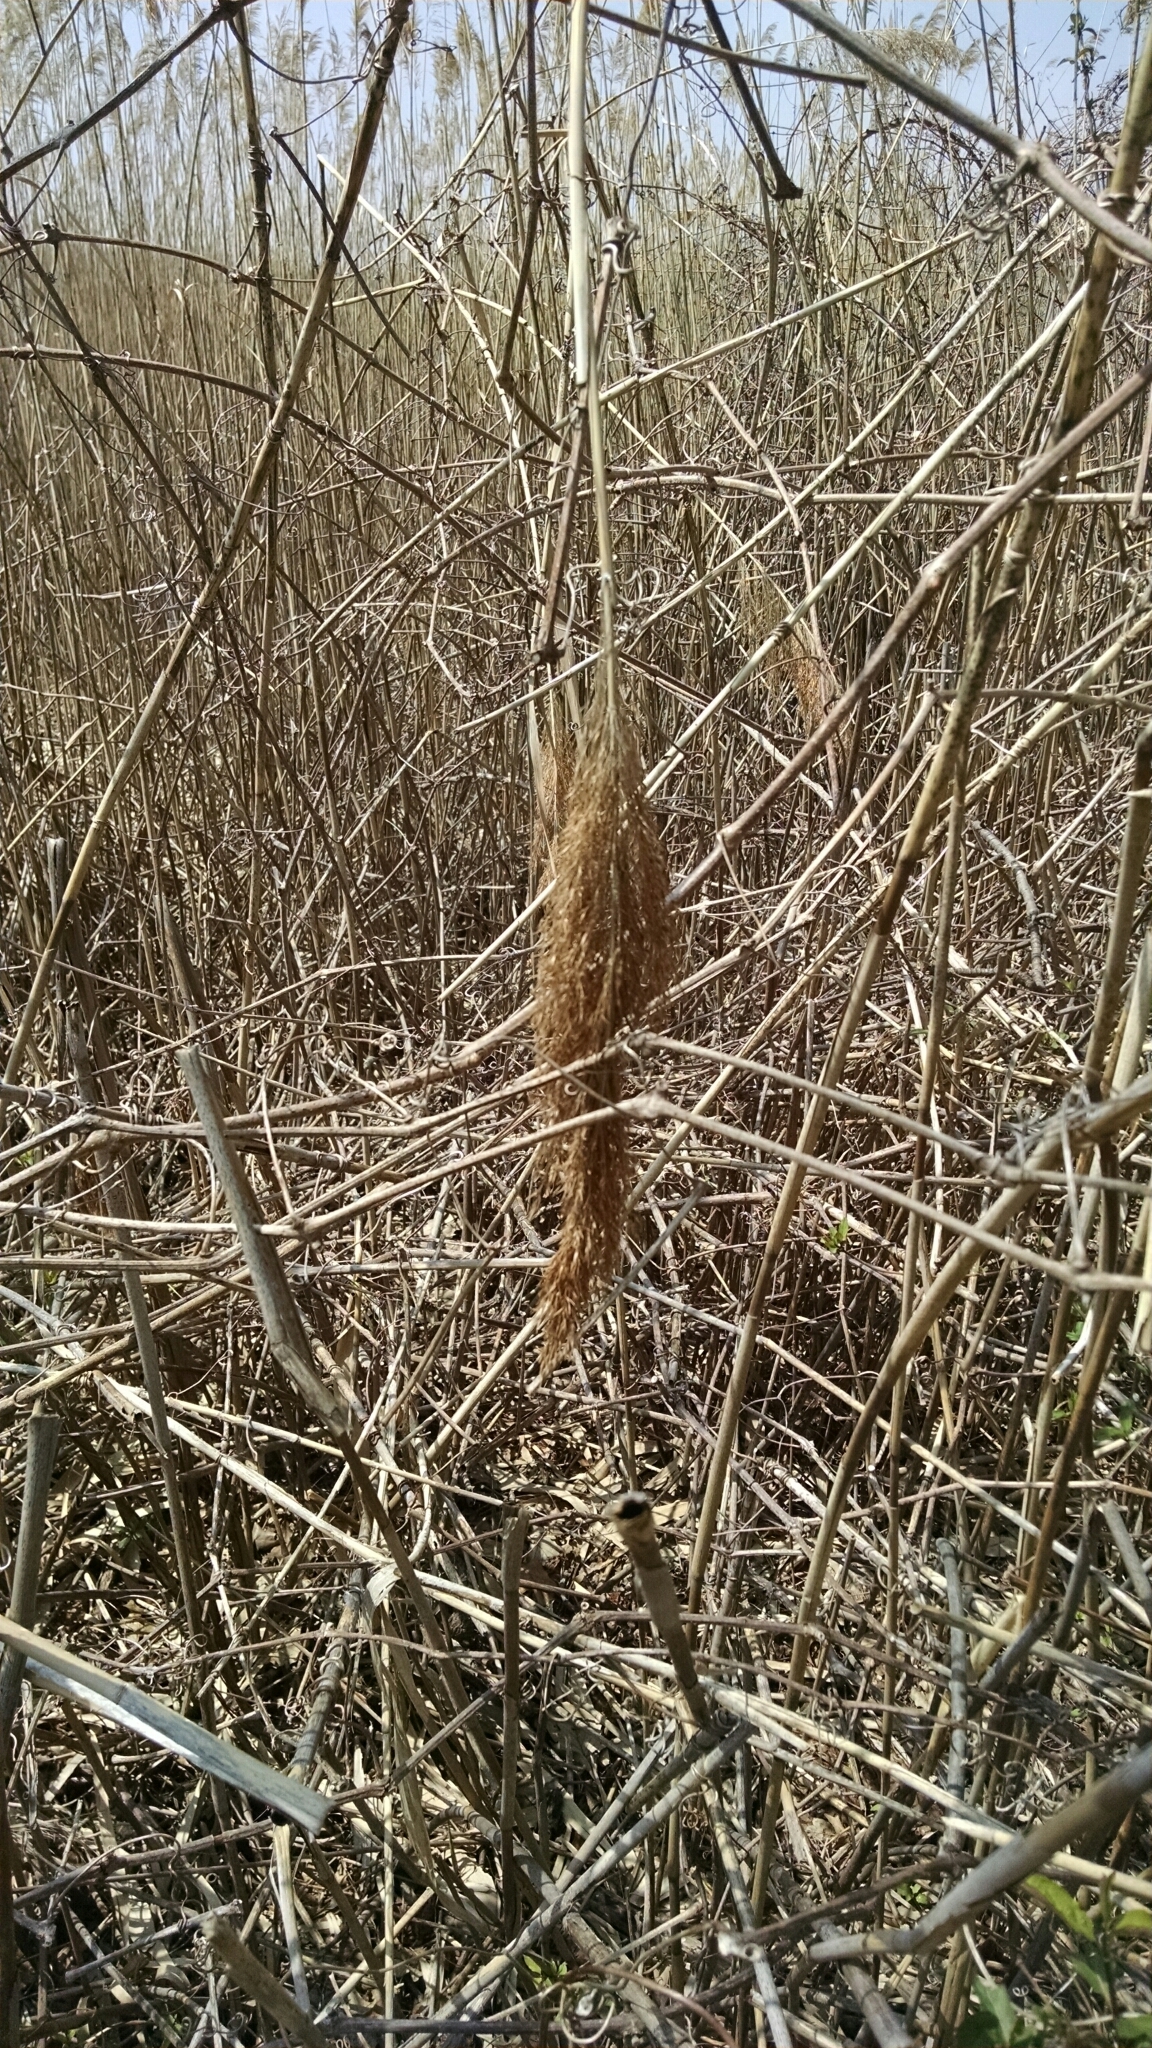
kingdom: Plantae
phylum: Tracheophyta
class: Liliopsida
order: Poales
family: Poaceae
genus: Phragmites
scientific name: Phragmites australis
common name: Common reed
